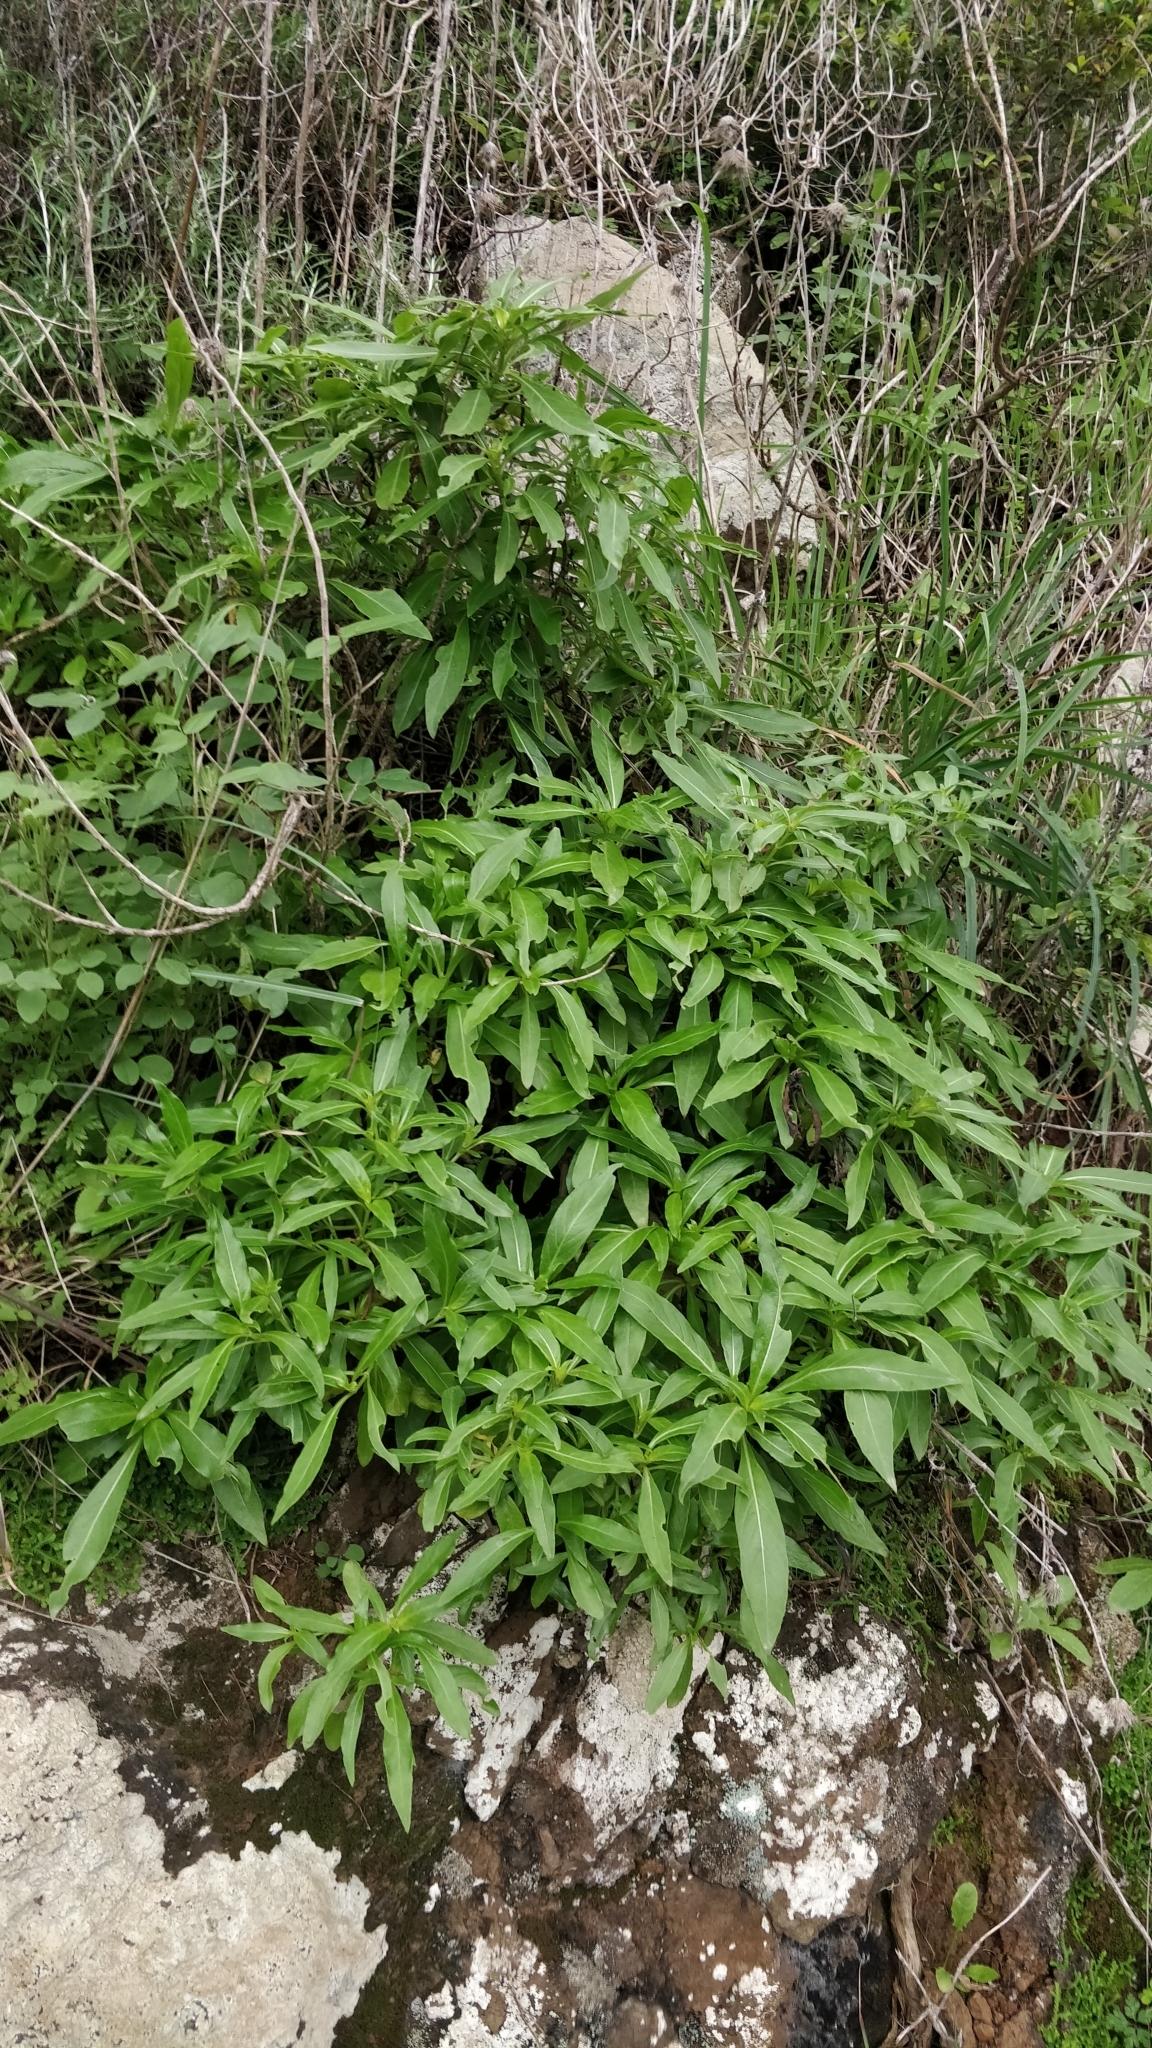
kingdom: Plantae
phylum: Tracheophyta
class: Magnoliopsida
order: Gentianales
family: Rubiaceae
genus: Phyllis
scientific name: Phyllis nobla
